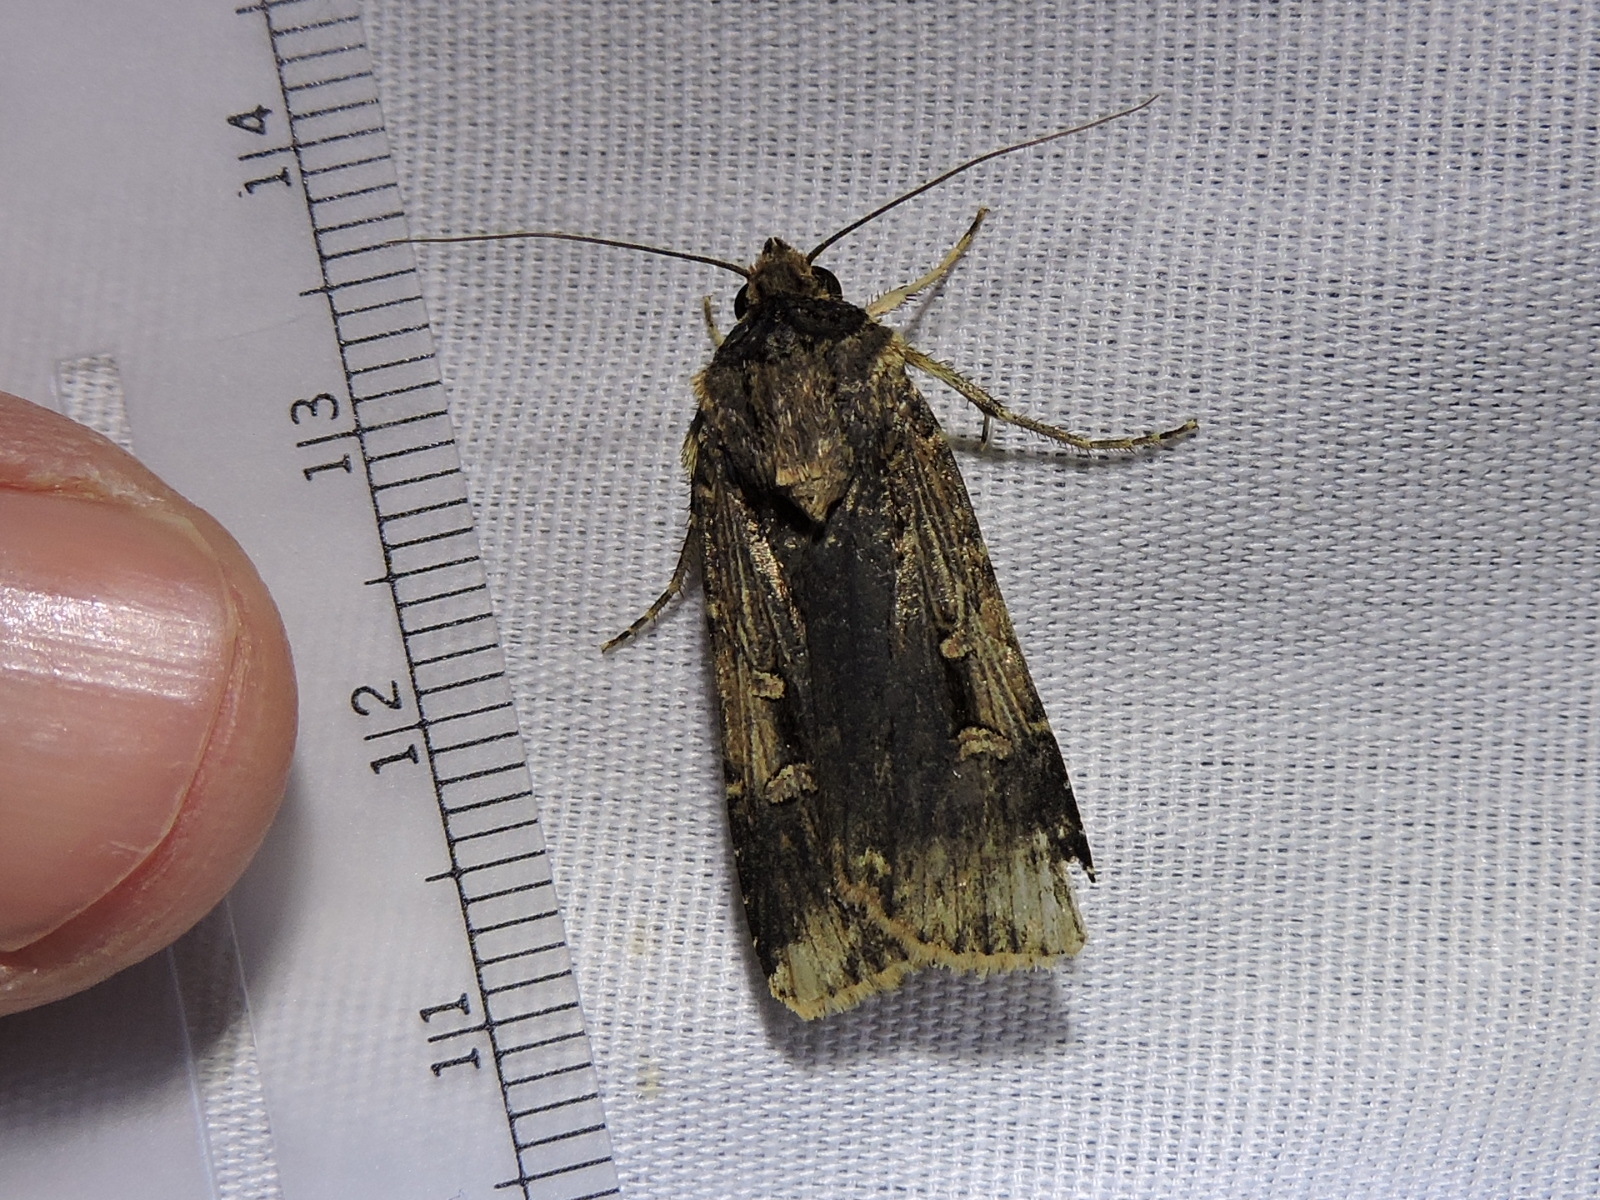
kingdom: Animalia
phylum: Arthropoda
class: Insecta
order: Lepidoptera
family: Noctuidae
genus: Feltia
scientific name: Feltia subterranea
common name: Granulate cutworm
